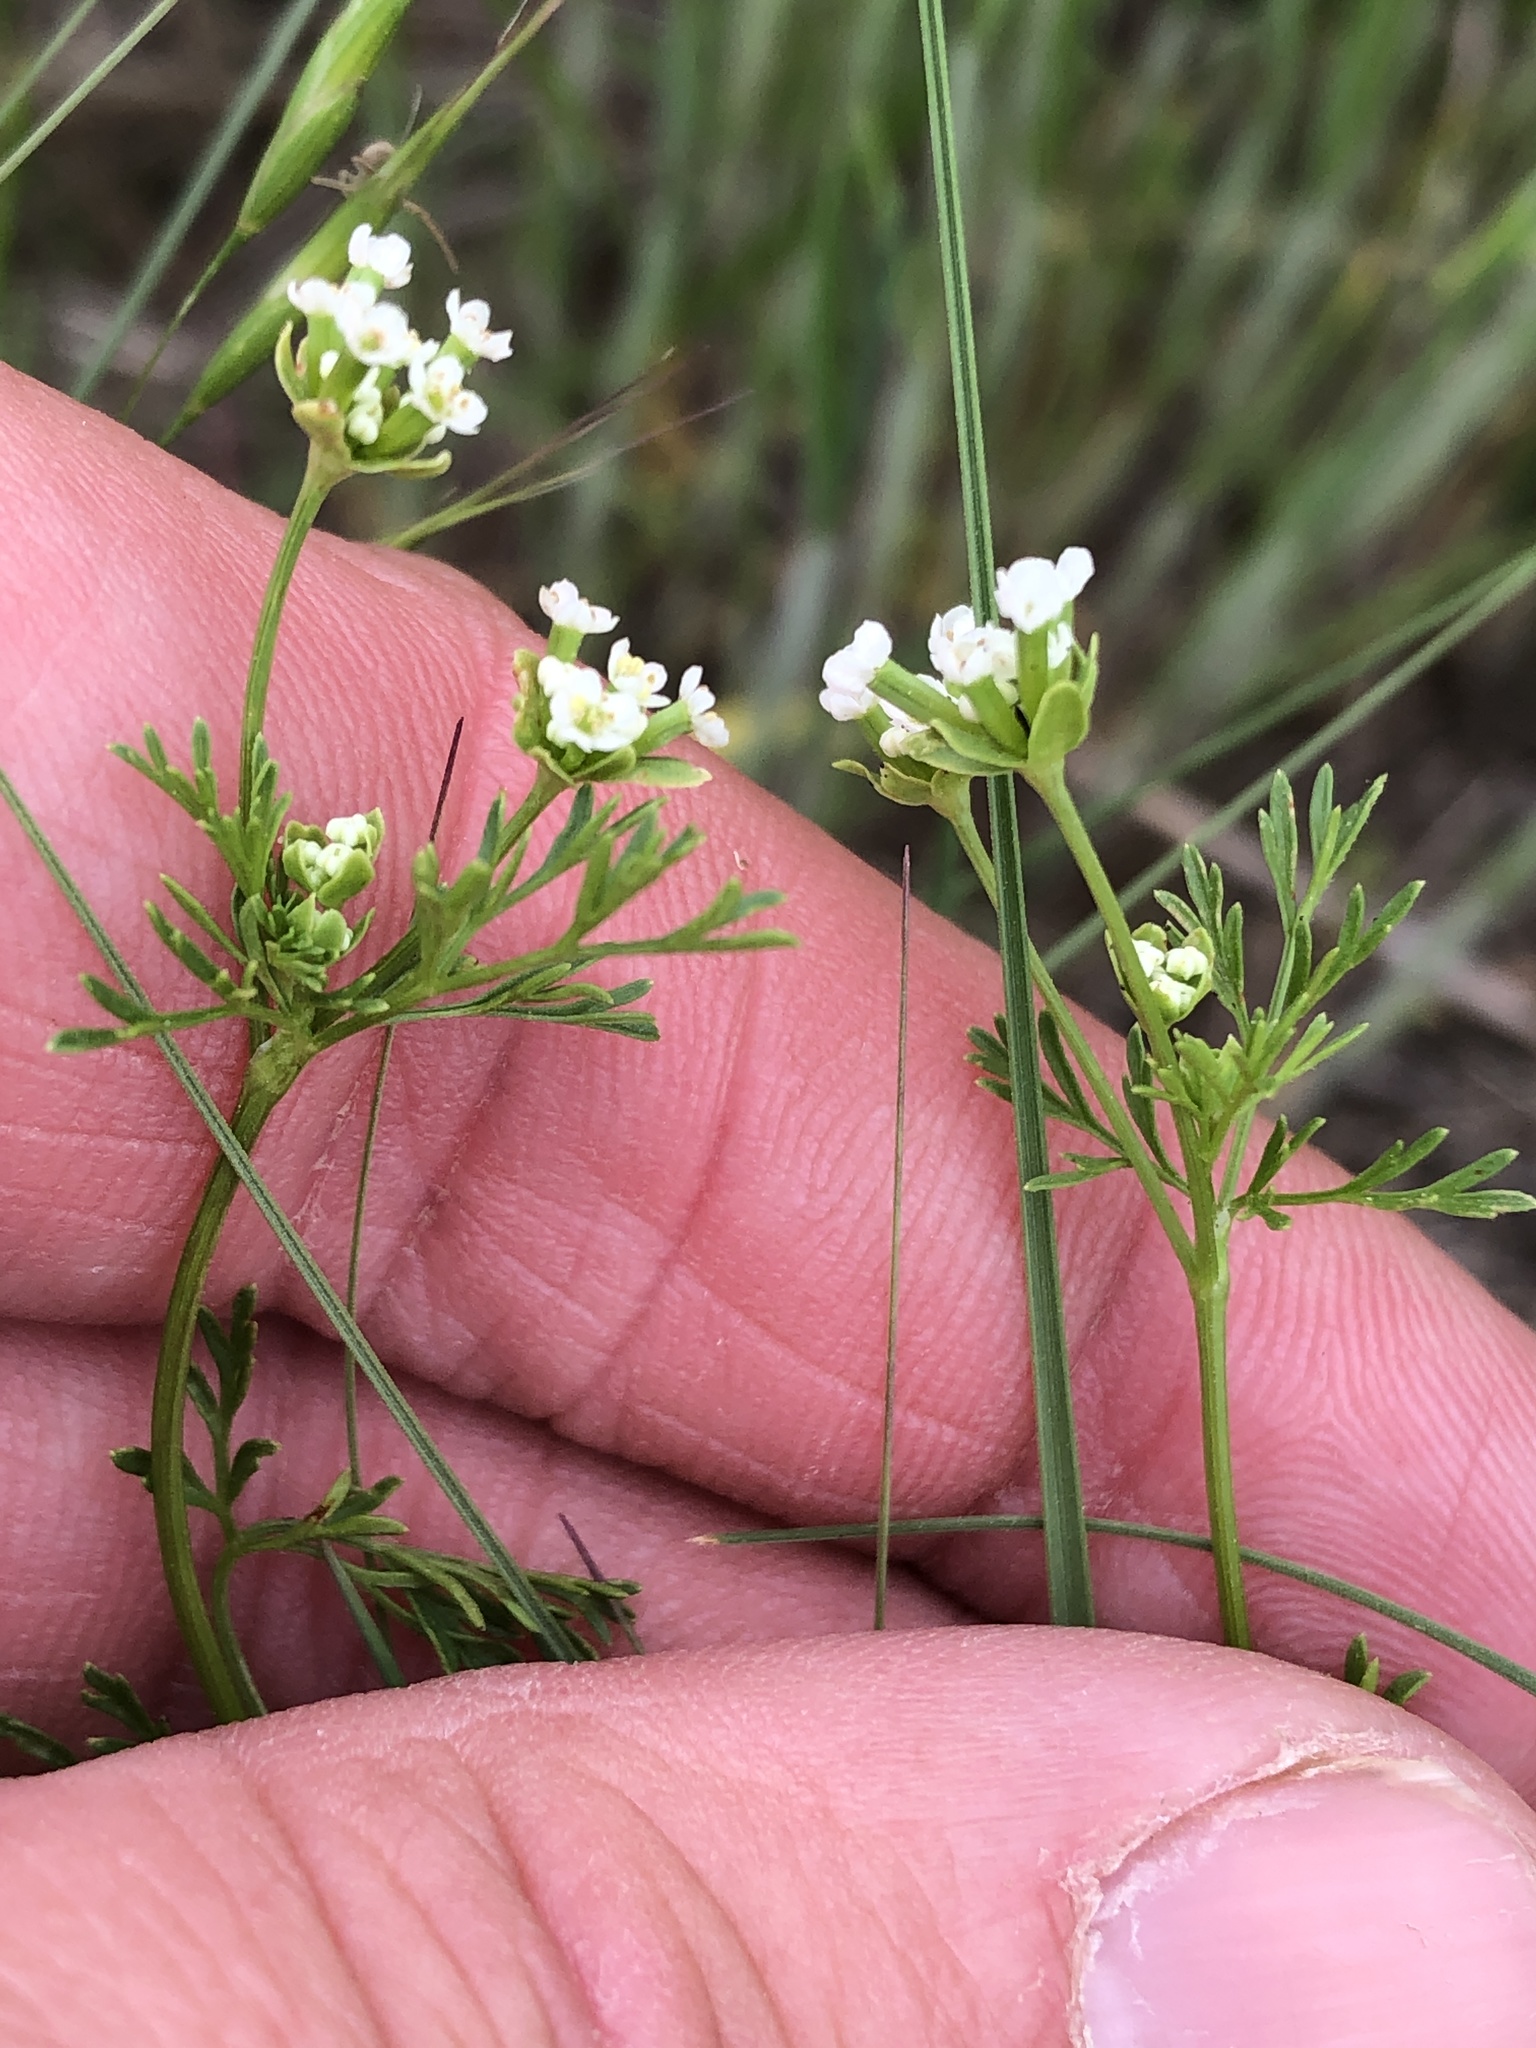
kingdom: Plantae
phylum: Tracheophyta
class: Magnoliopsida
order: Apiales
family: Apiaceae
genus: Chaerophyllum
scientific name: Chaerophyllum tainturieri
